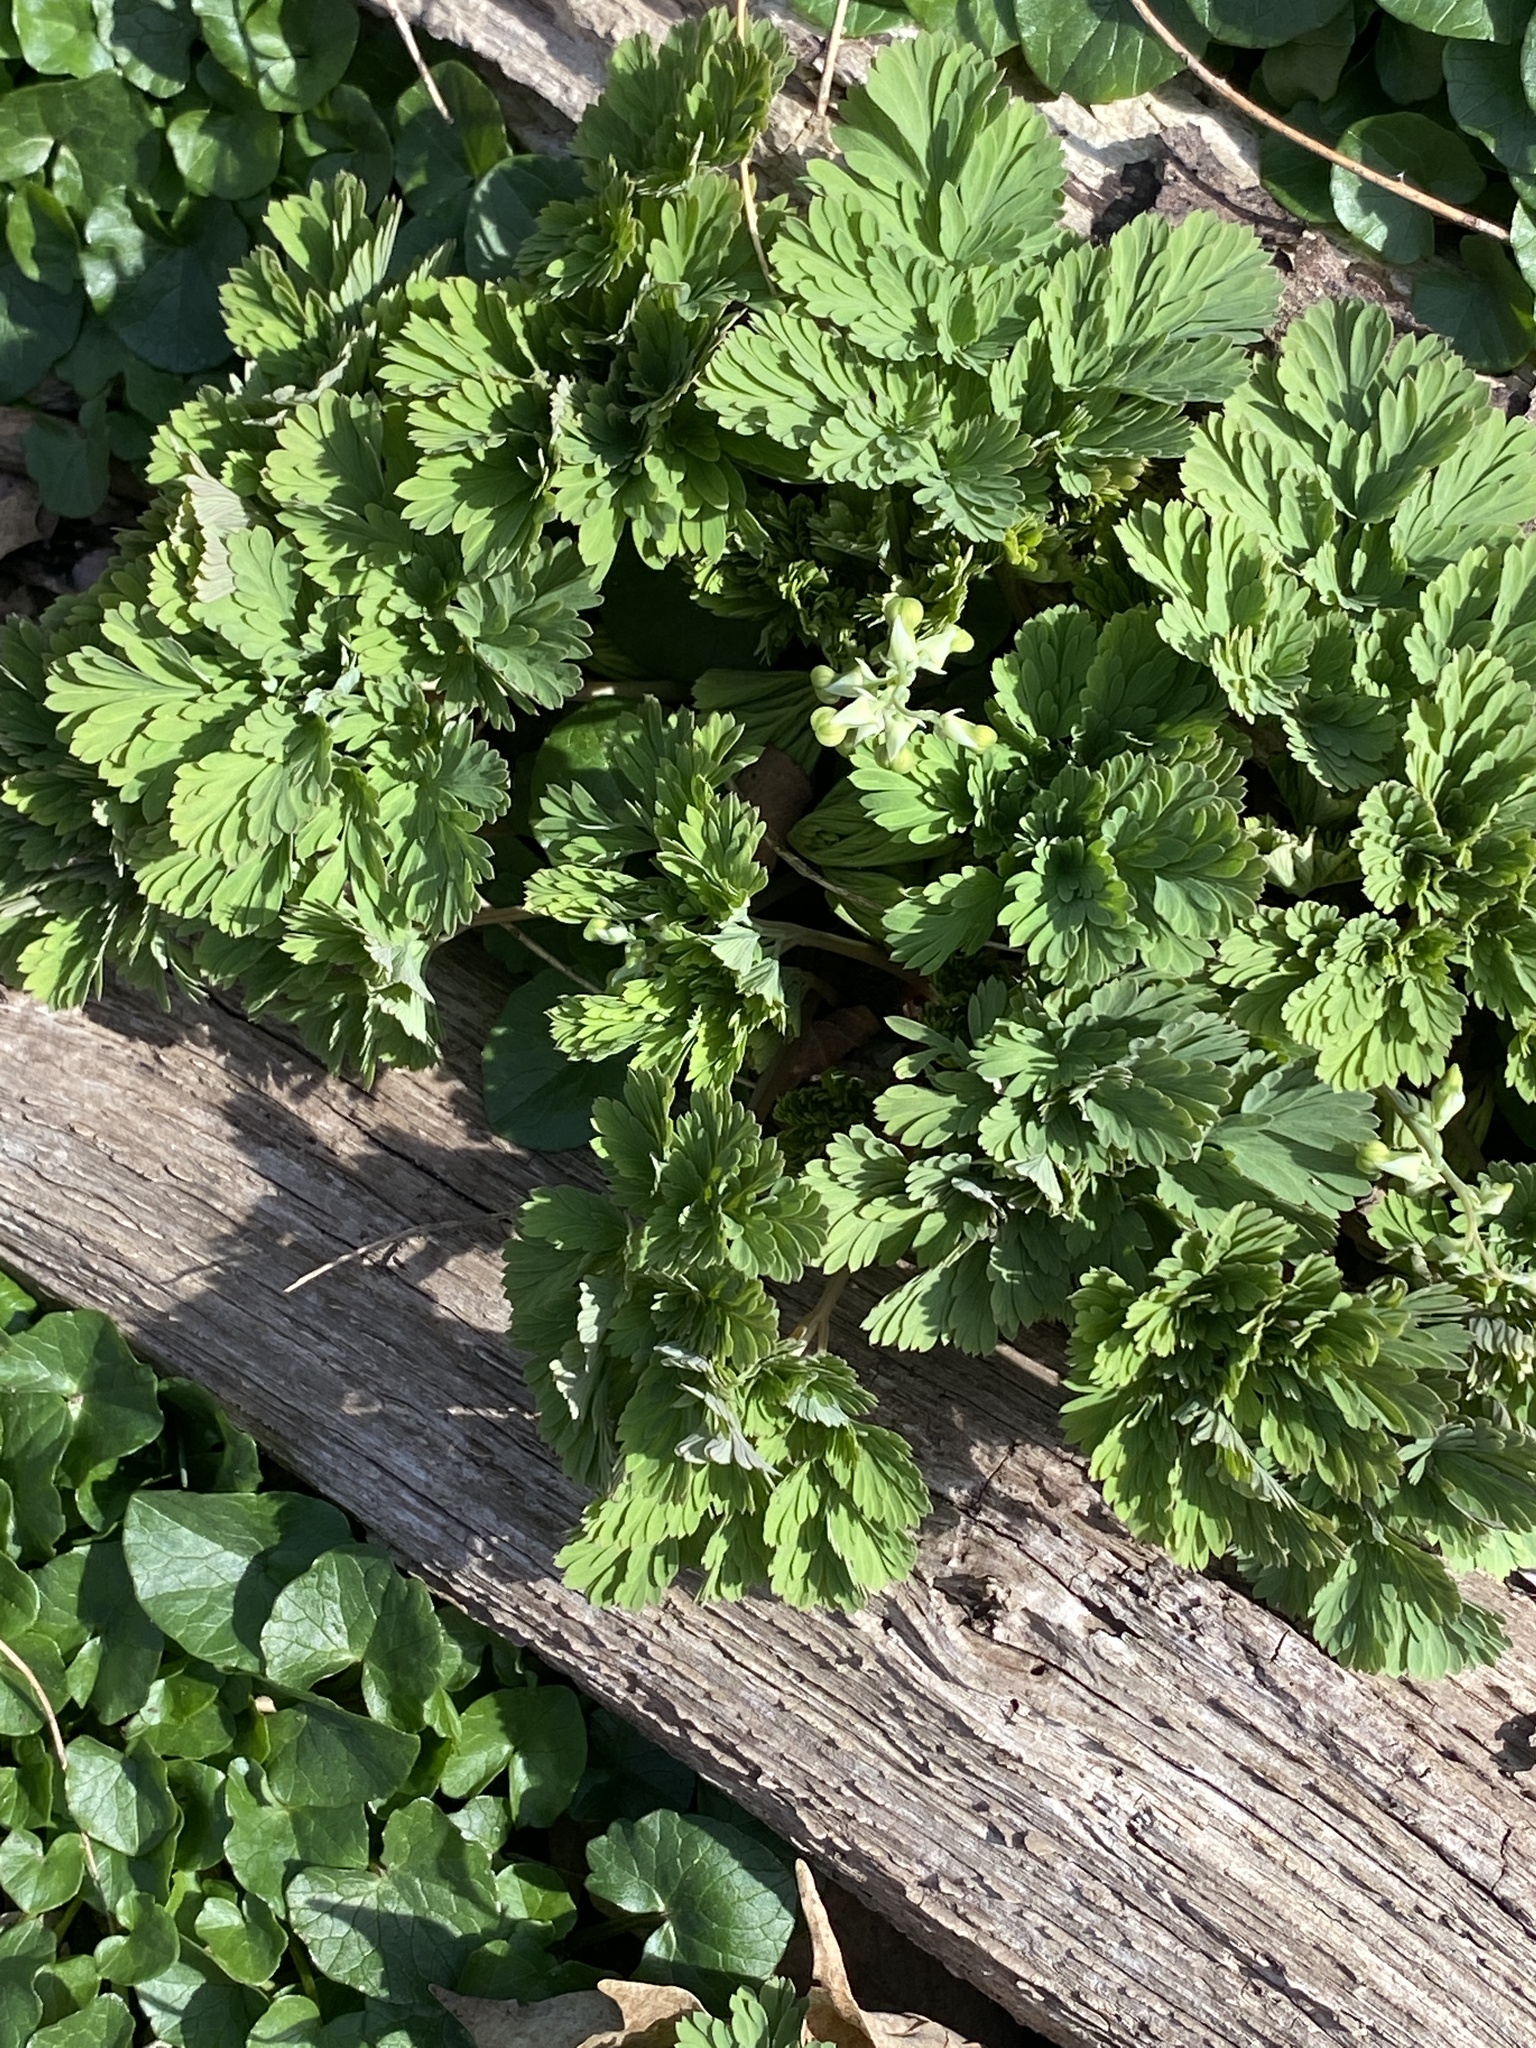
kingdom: Plantae
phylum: Tracheophyta
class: Magnoliopsida
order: Ranunculales
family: Papaveraceae
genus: Dicentra
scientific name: Dicentra cucullaria
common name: Dutchman's breeches
